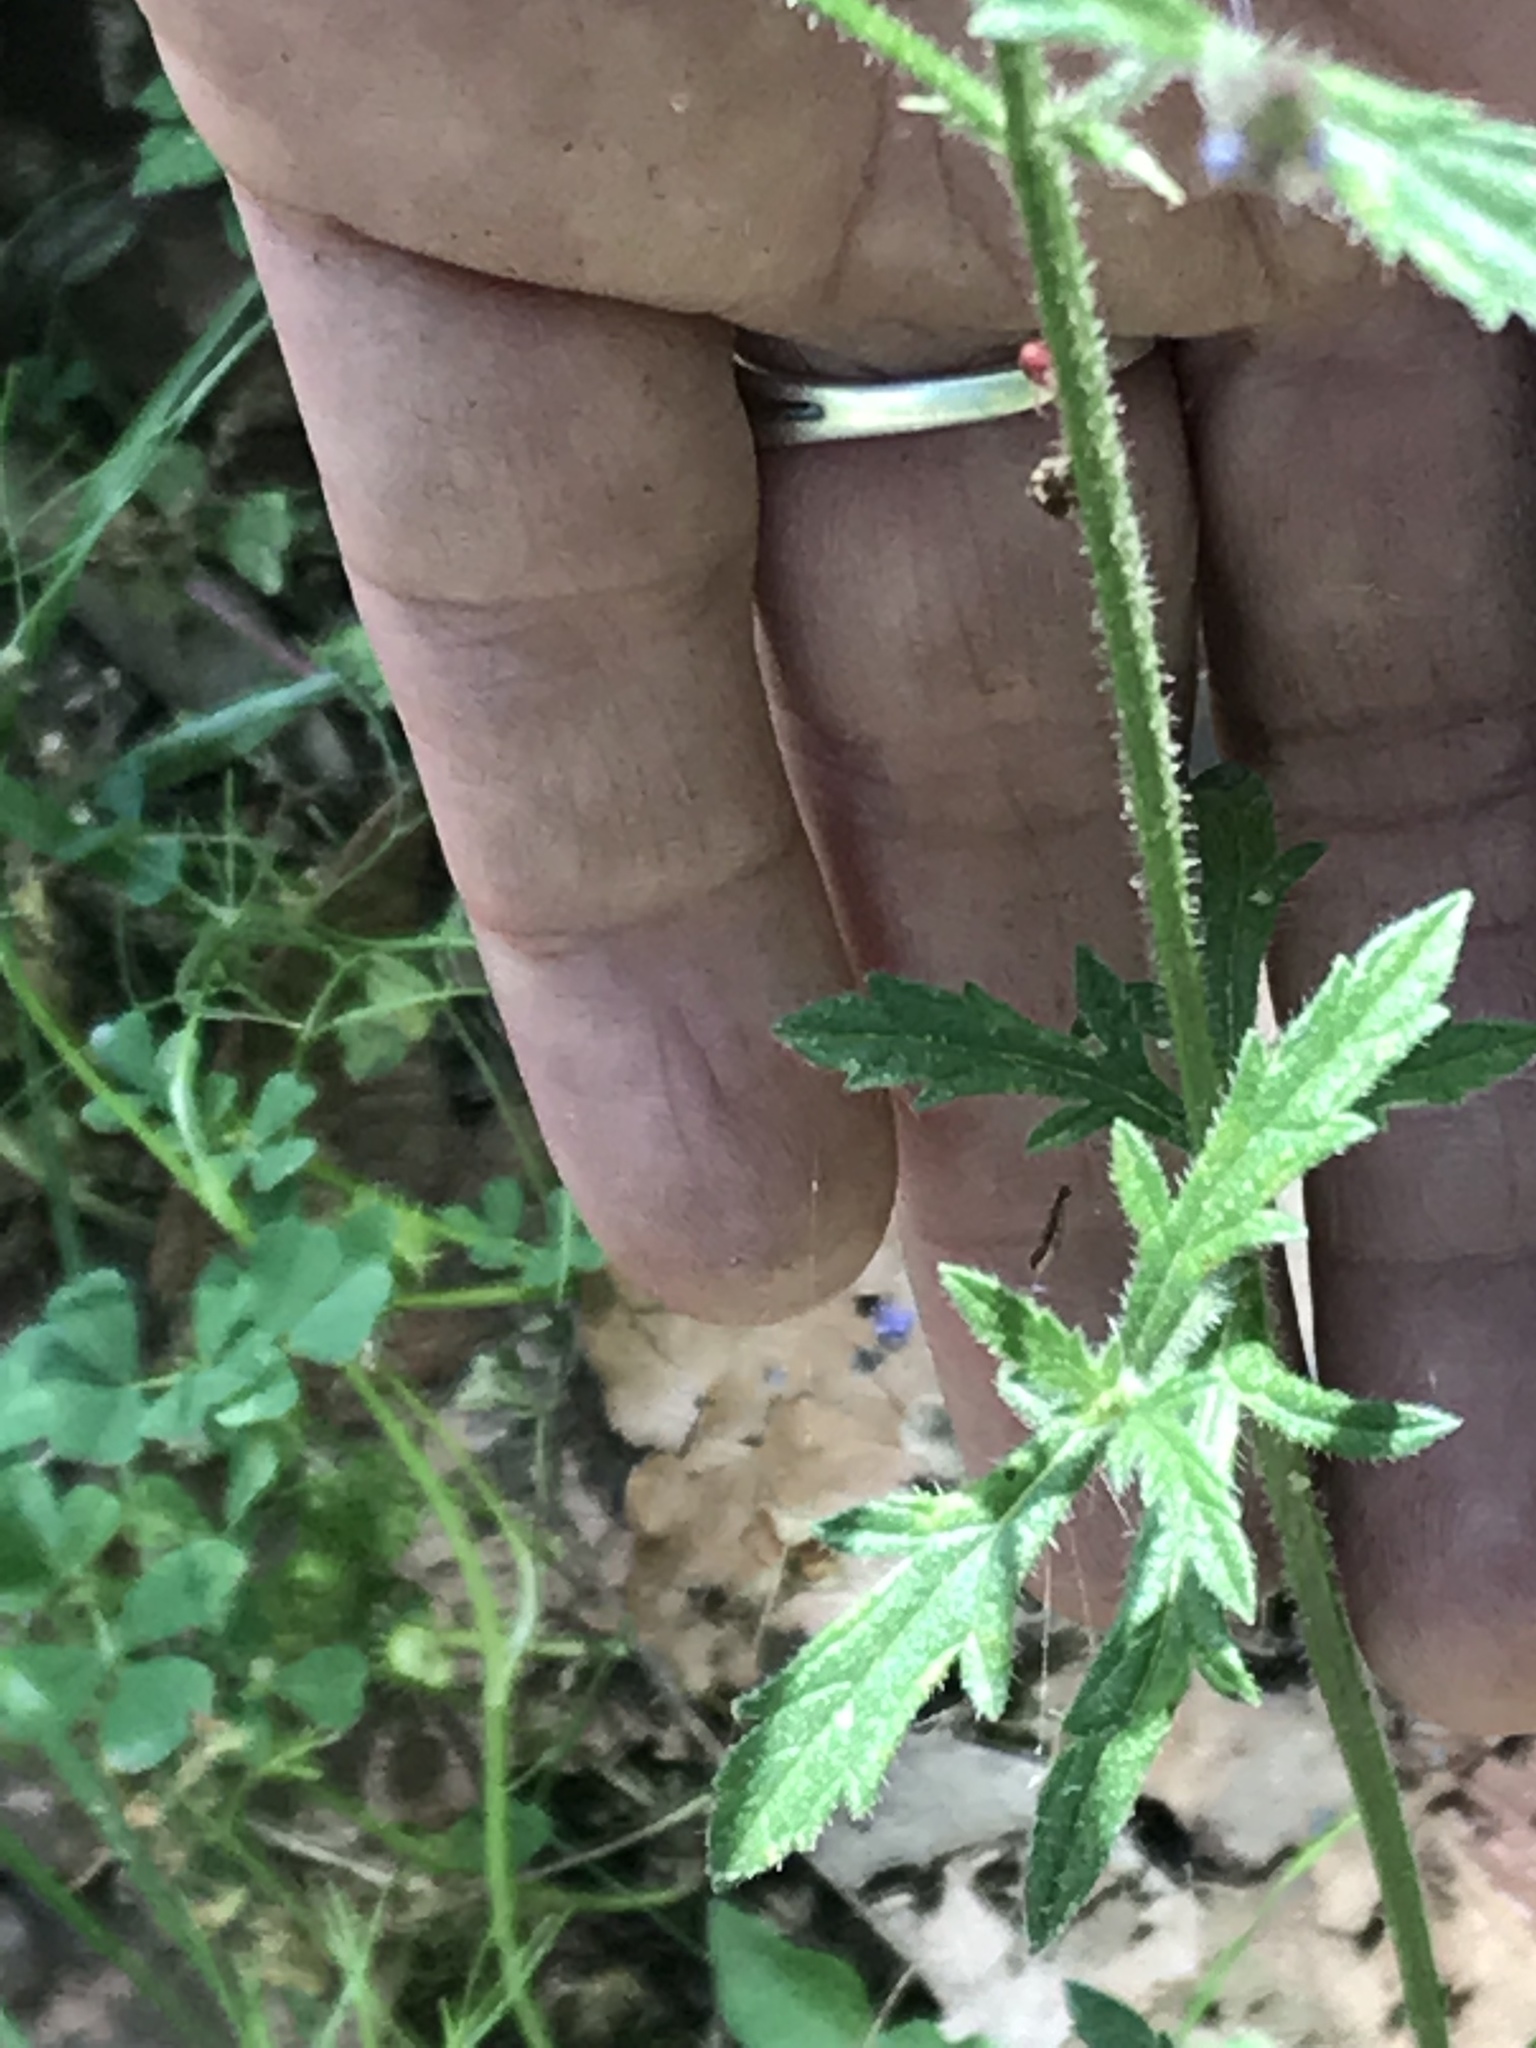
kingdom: Plantae
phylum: Tracheophyta
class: Magnoliopsida
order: Lamiales
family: Verbenaceae
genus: Verbena
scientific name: Verbena neomexicana
